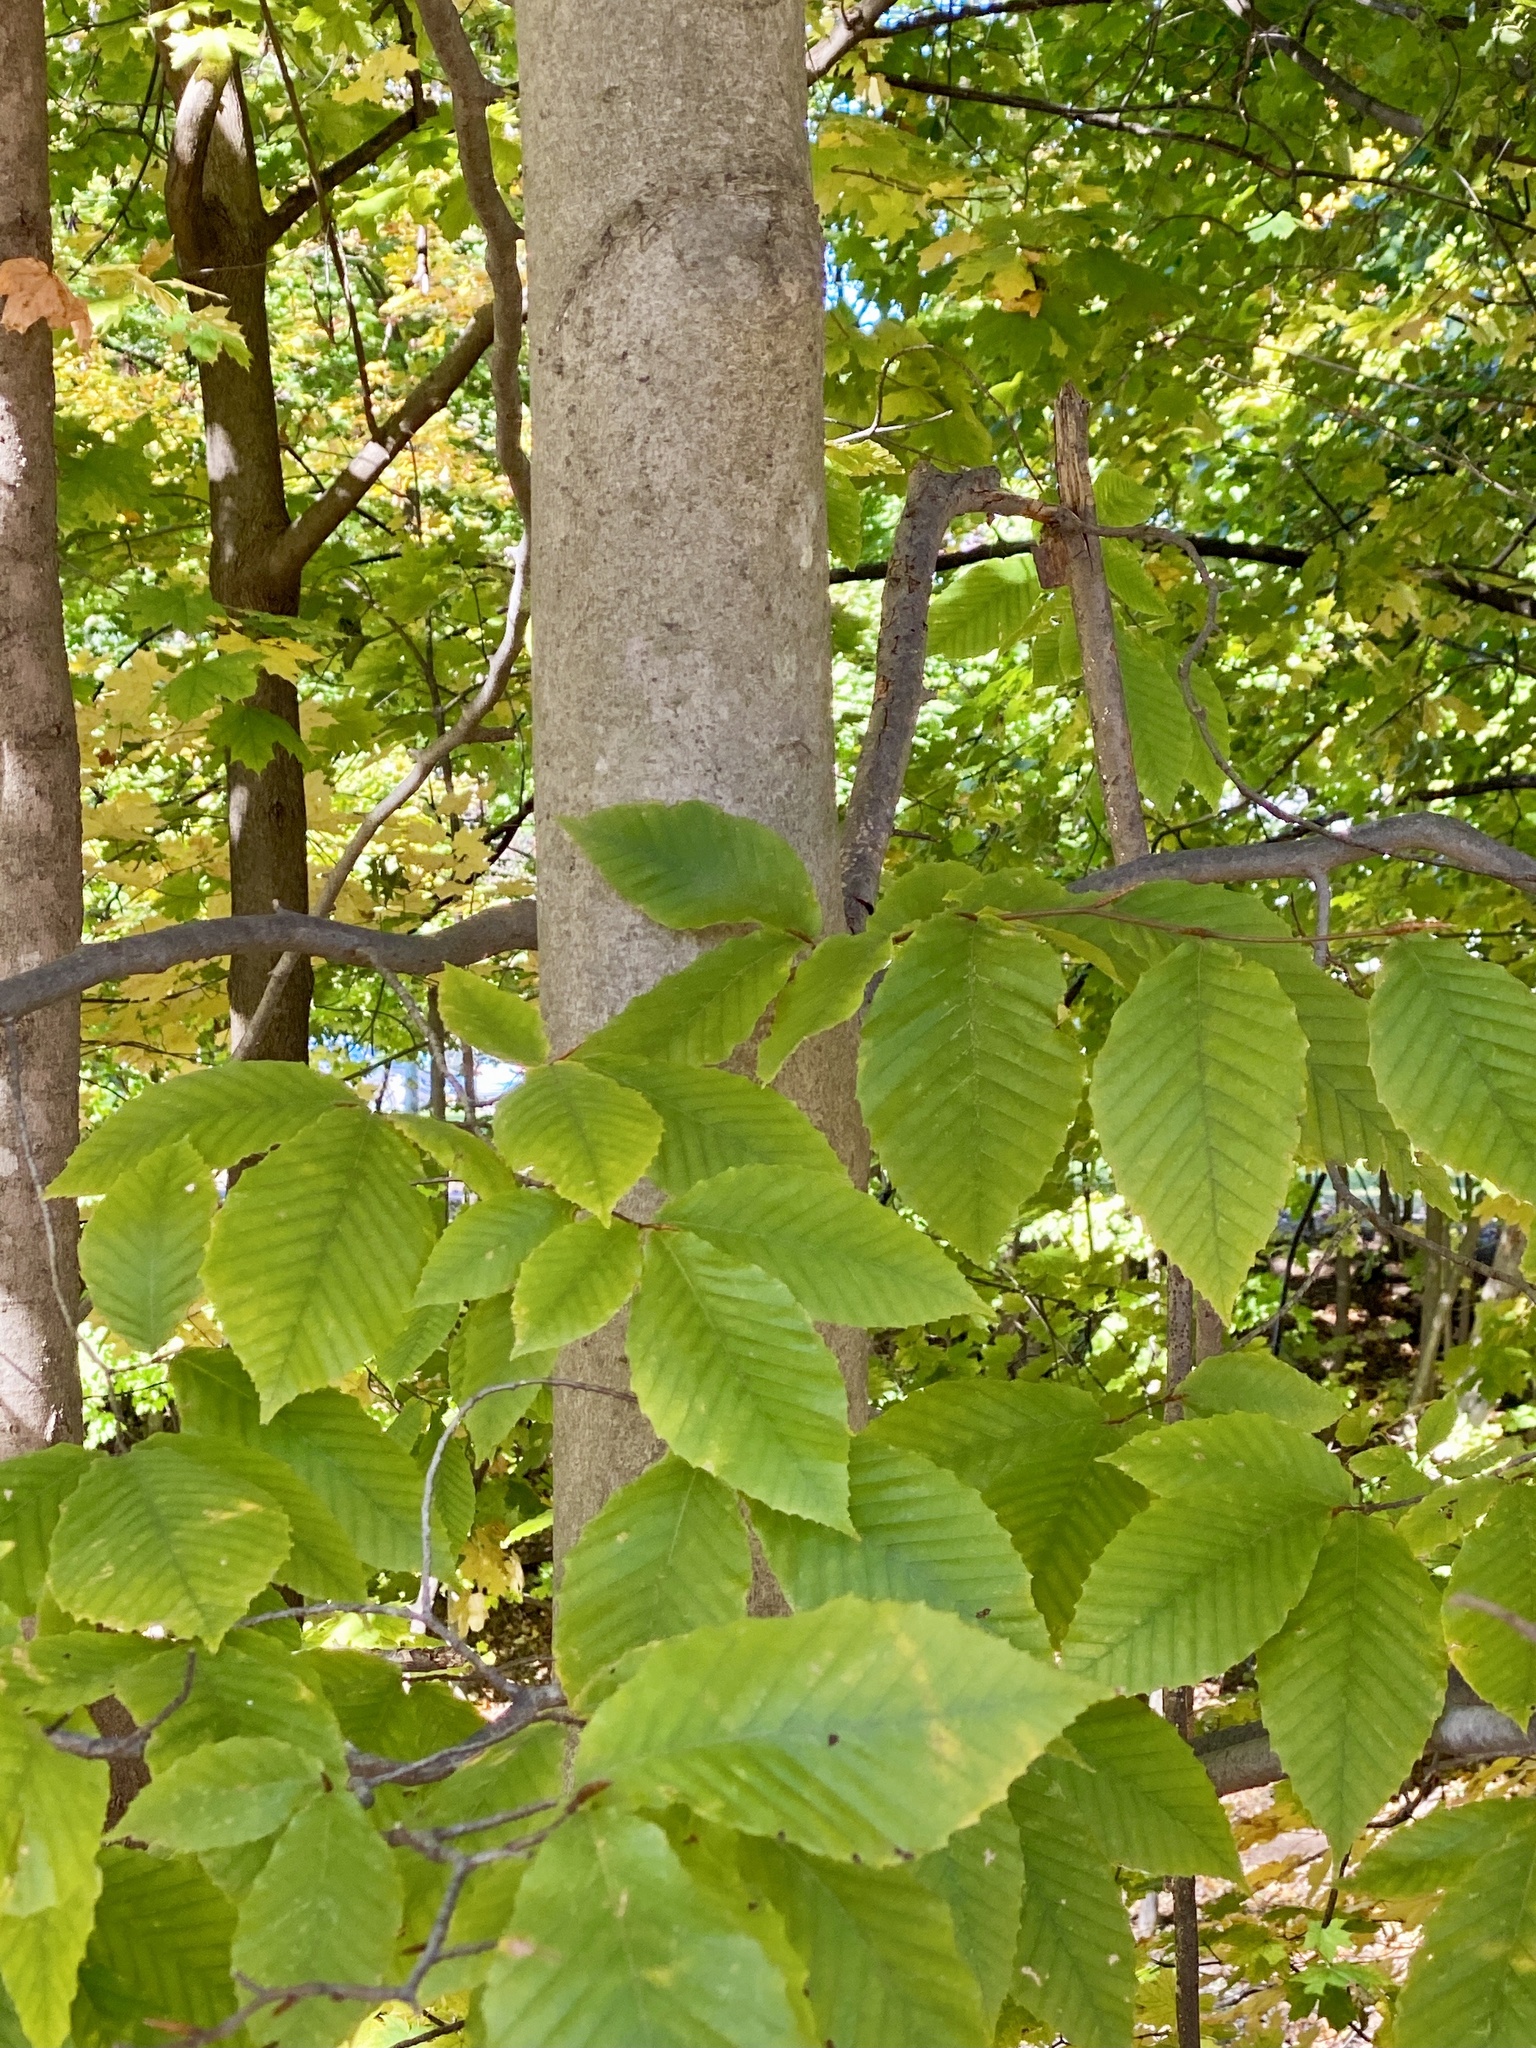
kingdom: Plantae
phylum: Tracheophyta
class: Magnoliopsida
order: Fagales
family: Fagaceae
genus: Fagus
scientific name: Fagus grandifolia
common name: American beech
